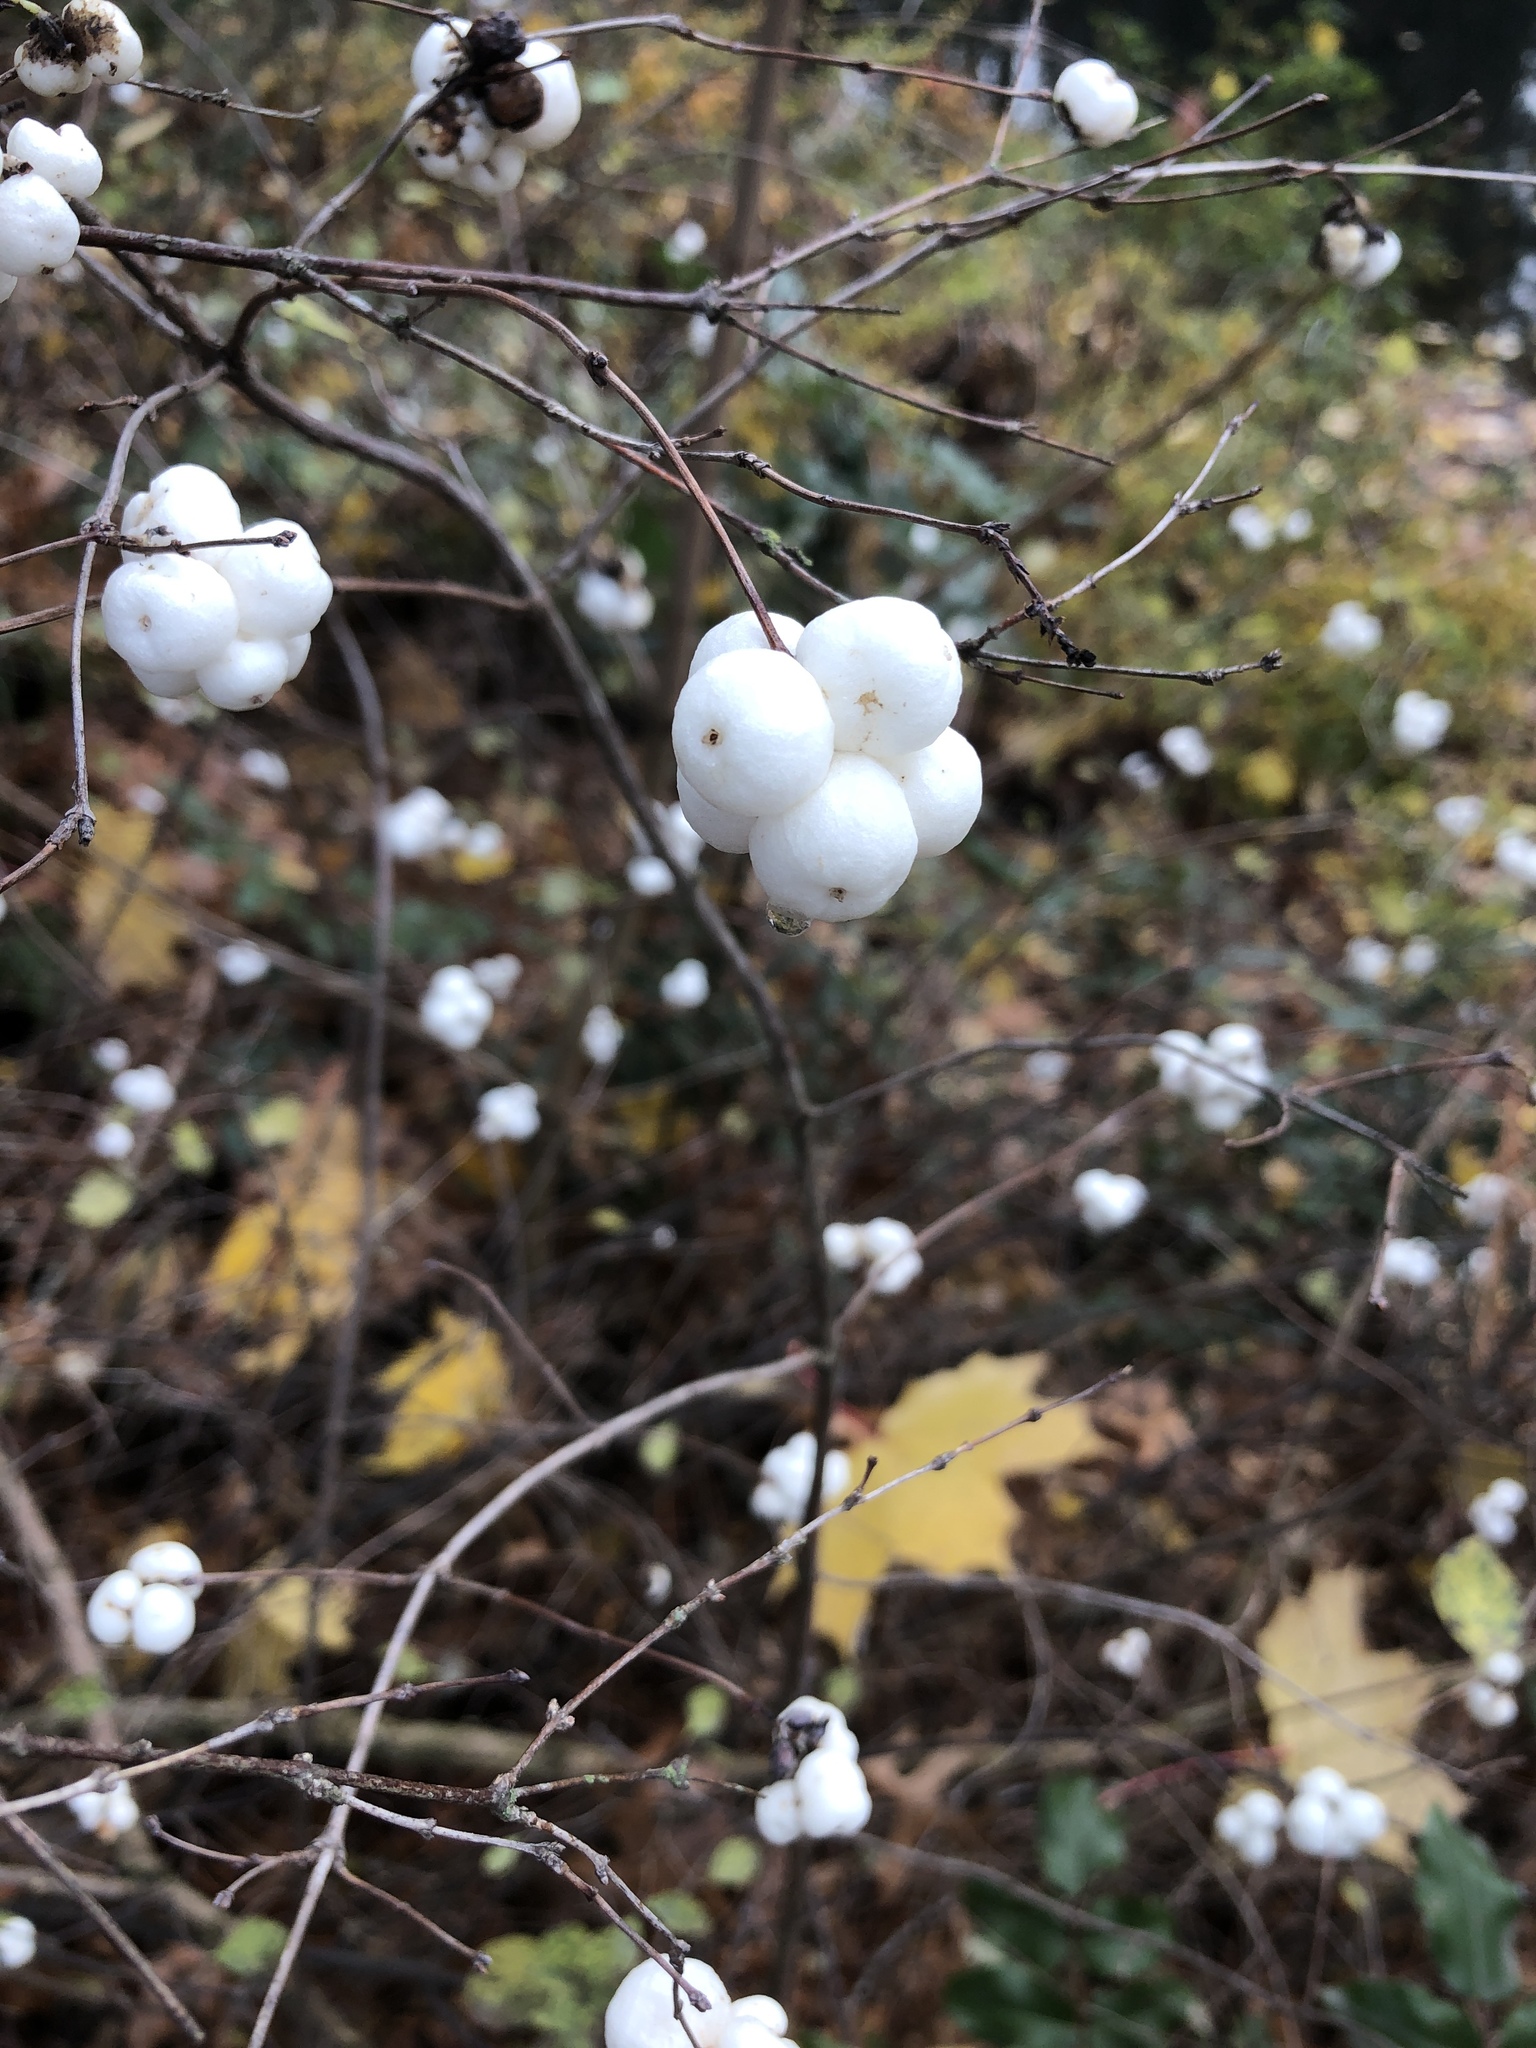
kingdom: Plantae
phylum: Tracheophyta
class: Magnoliopsida
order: Dipsacales
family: Caprifoliaceae
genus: Symphoricarpos
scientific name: Symphoricarpos albus
